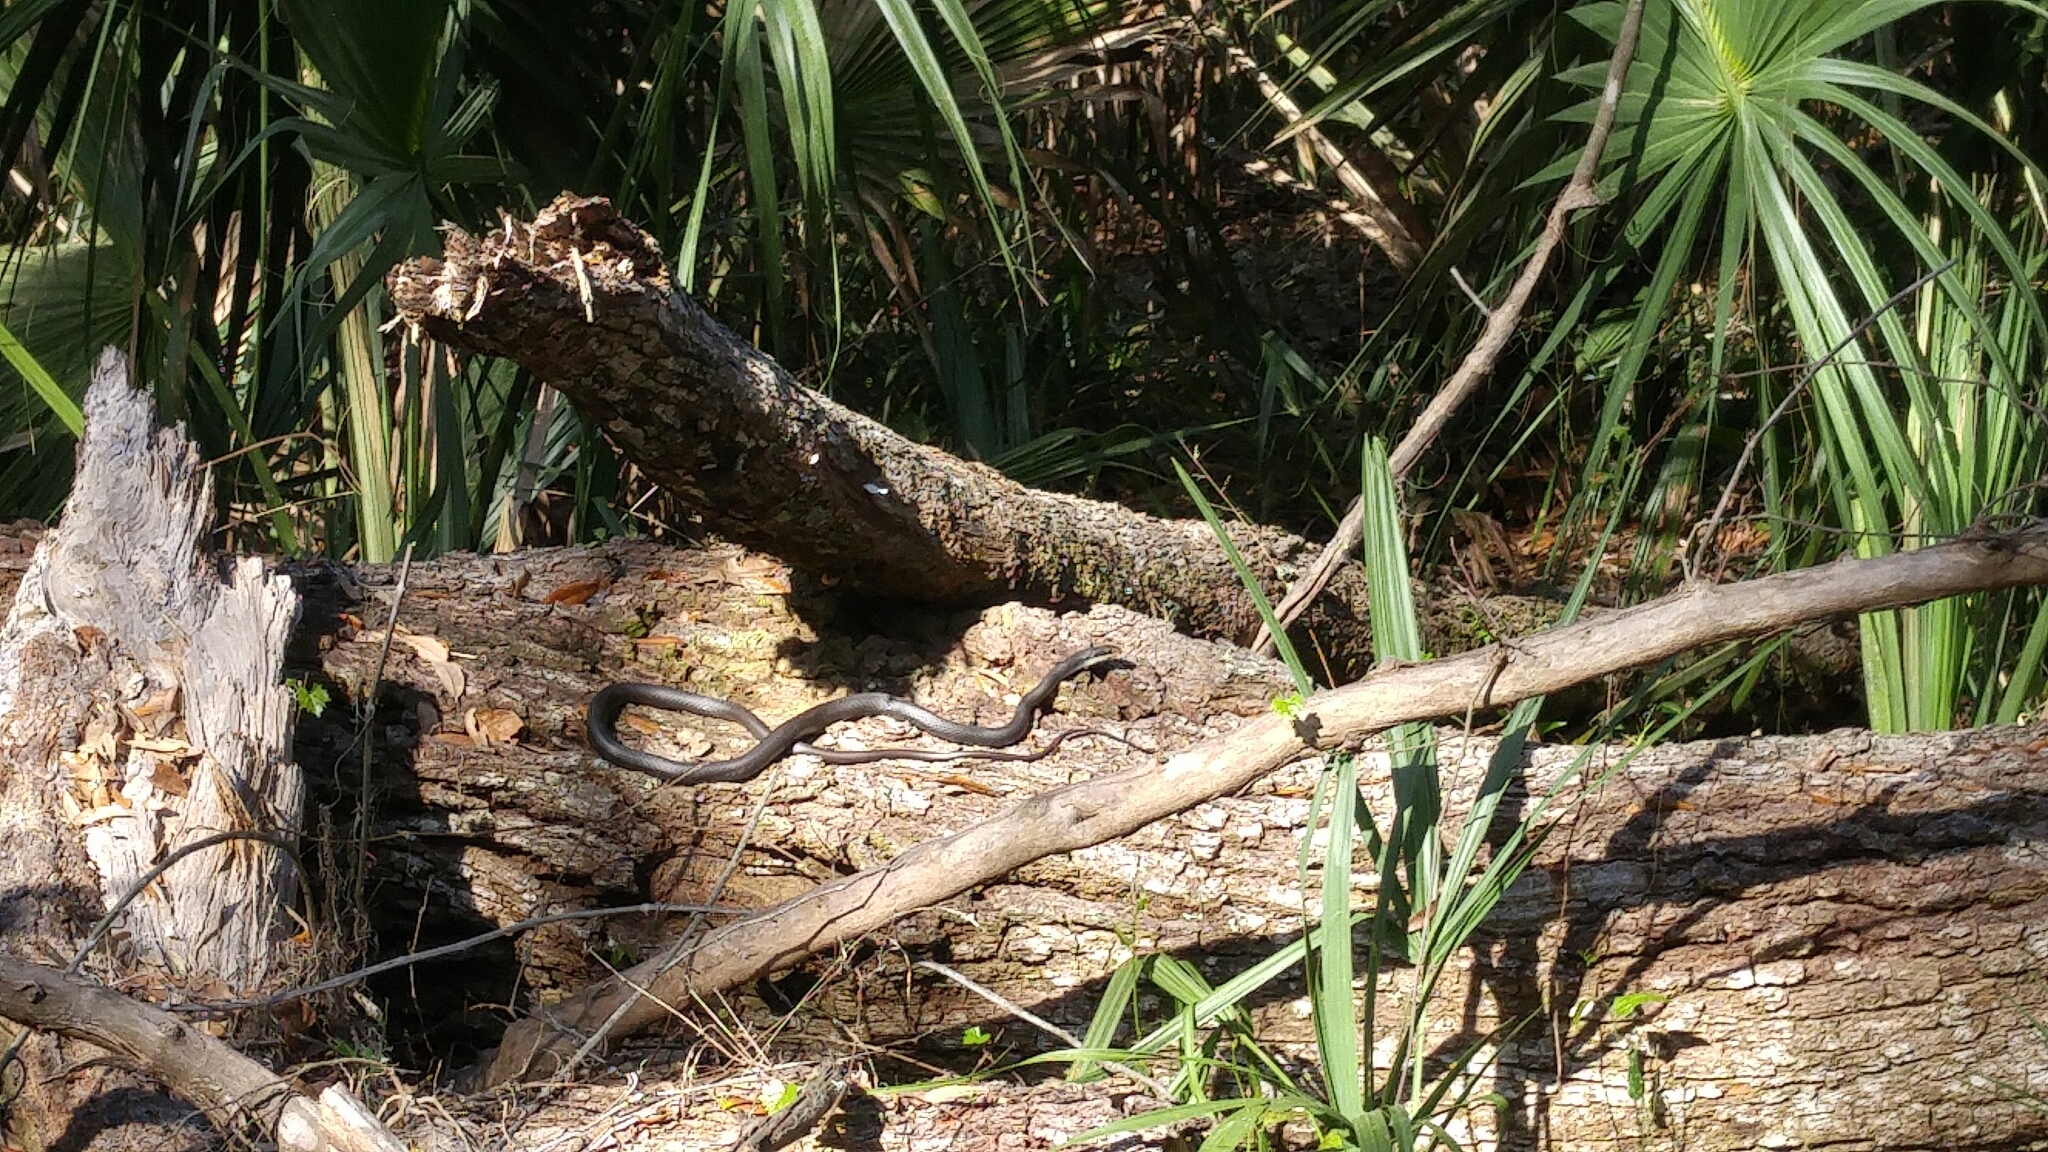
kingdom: Animalia
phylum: Chordata
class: Squamata
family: Colubridae
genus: Coluber
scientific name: Coluber constrictor
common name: Eastern racer
